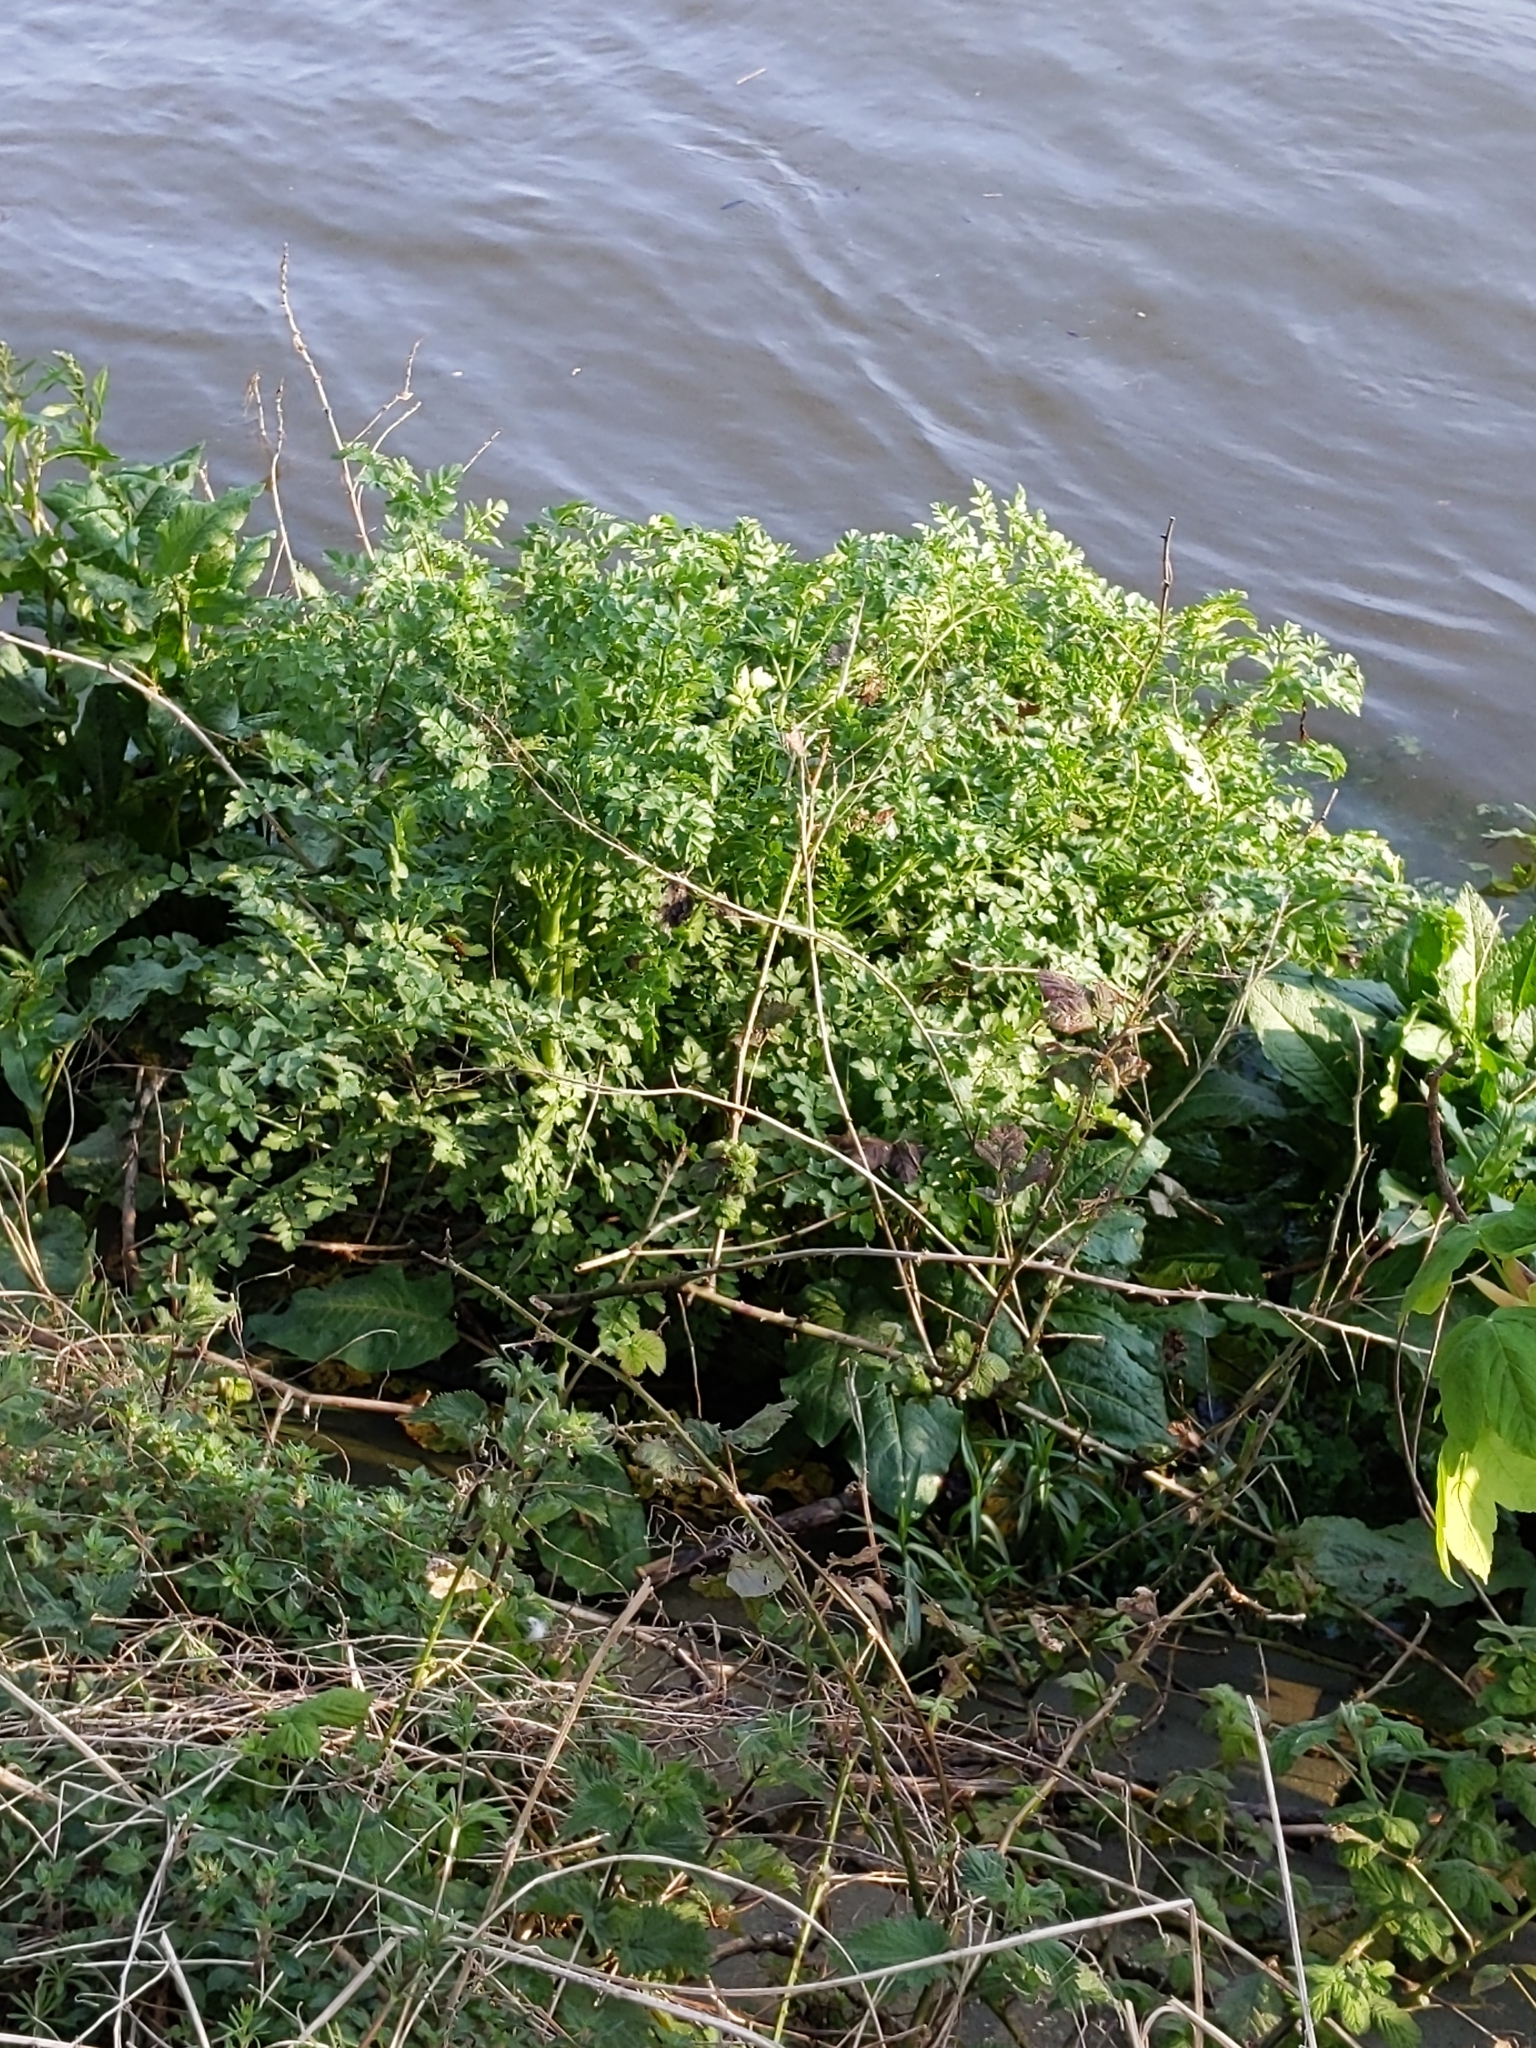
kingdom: Plantae
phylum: Tracheophyta
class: Magnoliopsida
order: Apiales
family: Apiaceae
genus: Oenanthe
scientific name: Oenanthe crocata
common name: Hemlock water-dropwort
